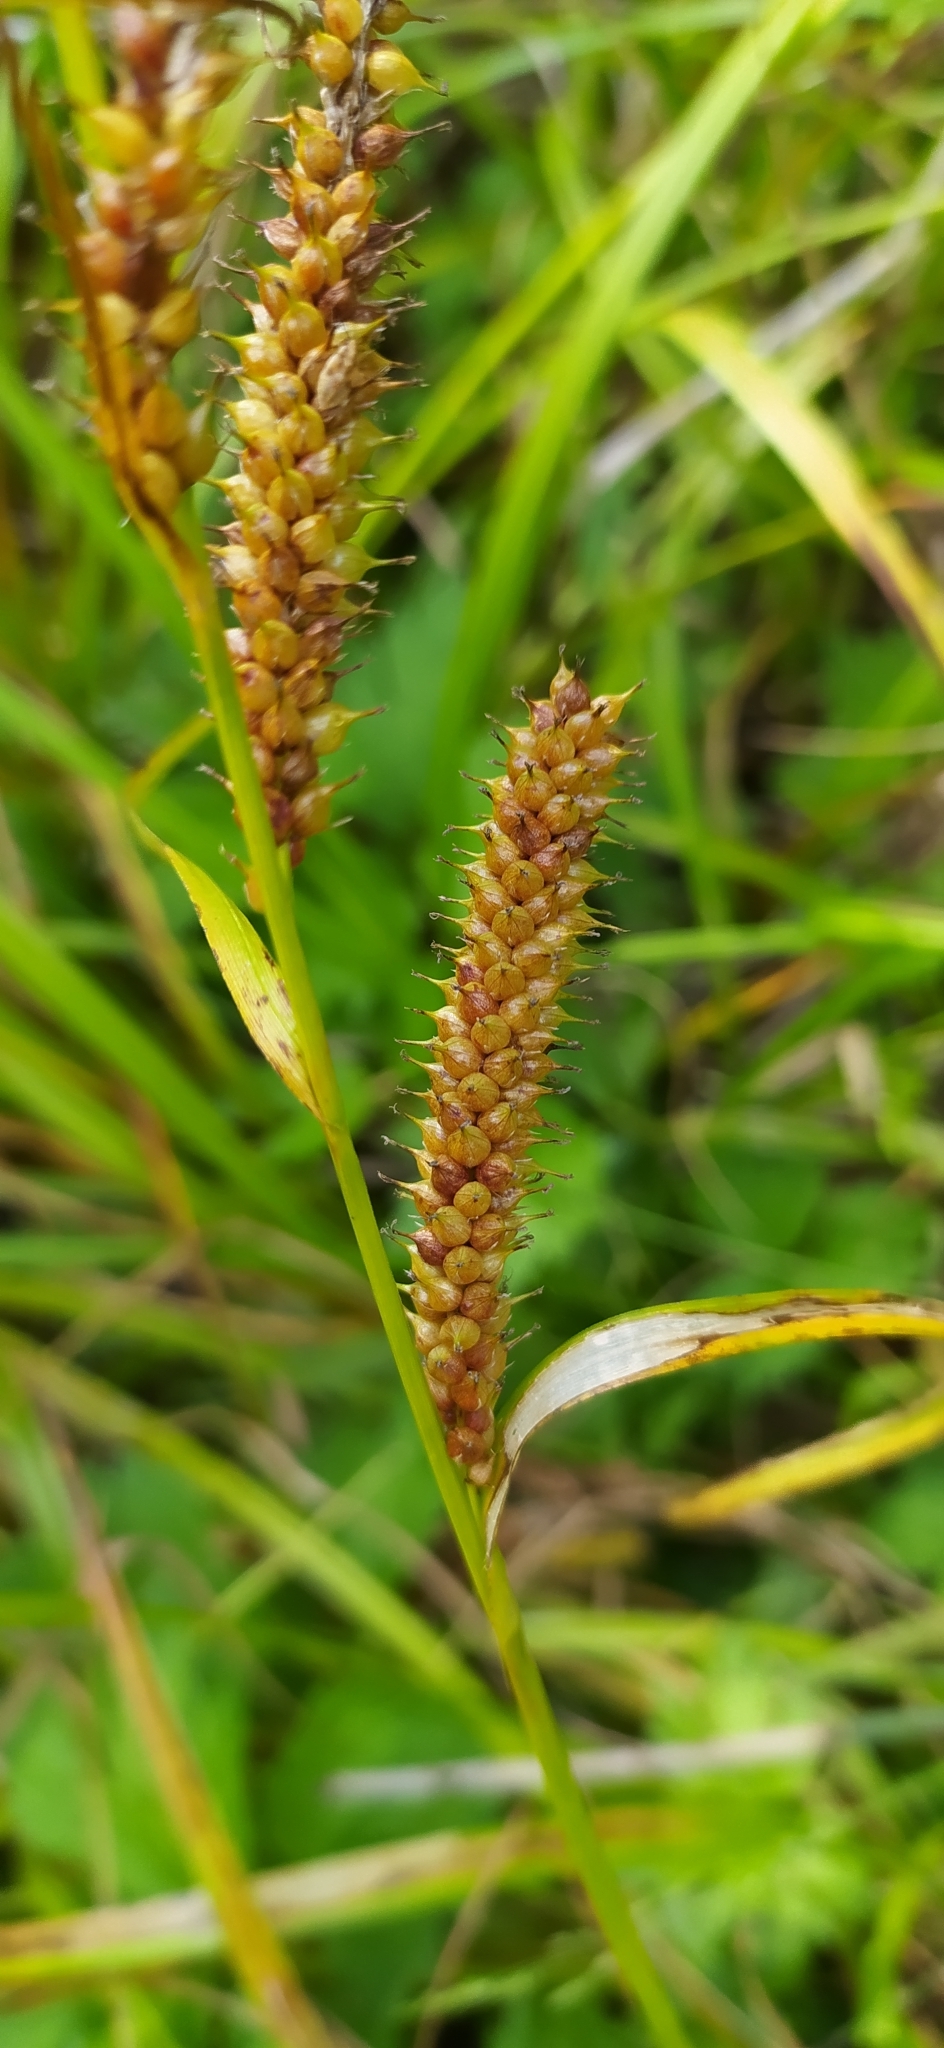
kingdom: Plantae
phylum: Tracheophyta
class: Liliopsida
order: Poales
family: Cyperaceae
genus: Carex
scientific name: Carex utriculata
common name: Beaked sedge
